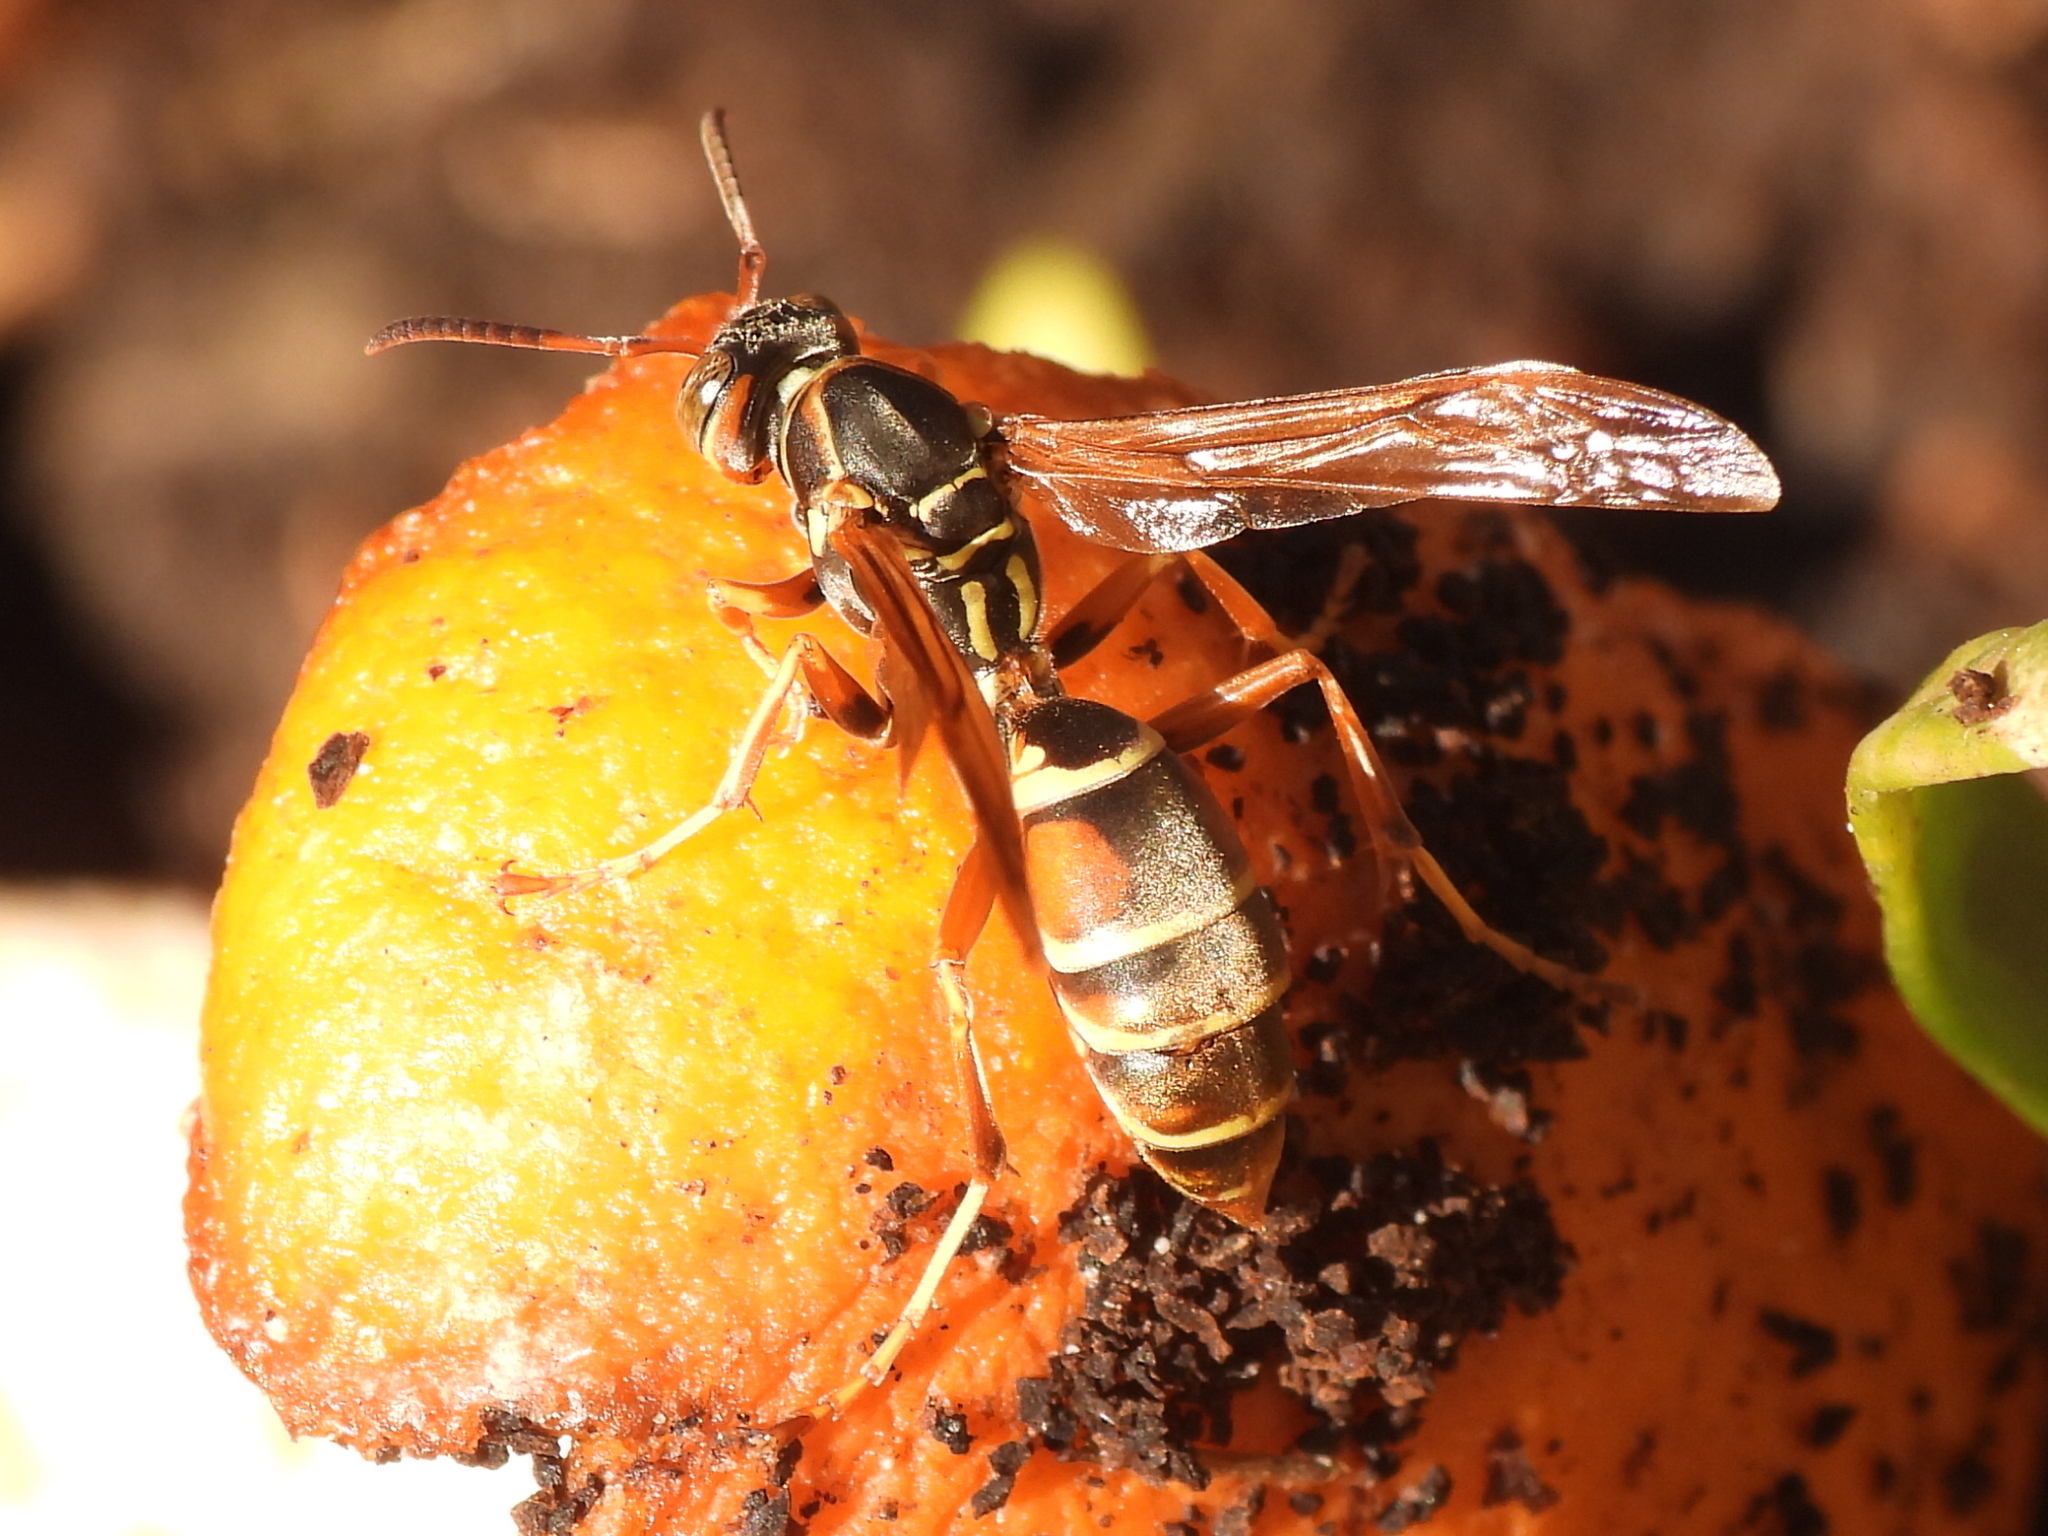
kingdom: Animalia
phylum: Arthropoda
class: Insecta
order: Hymenoptera
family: Eumenidae
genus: Polistes
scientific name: Polistes fuscatus
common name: Dark paper wasp
